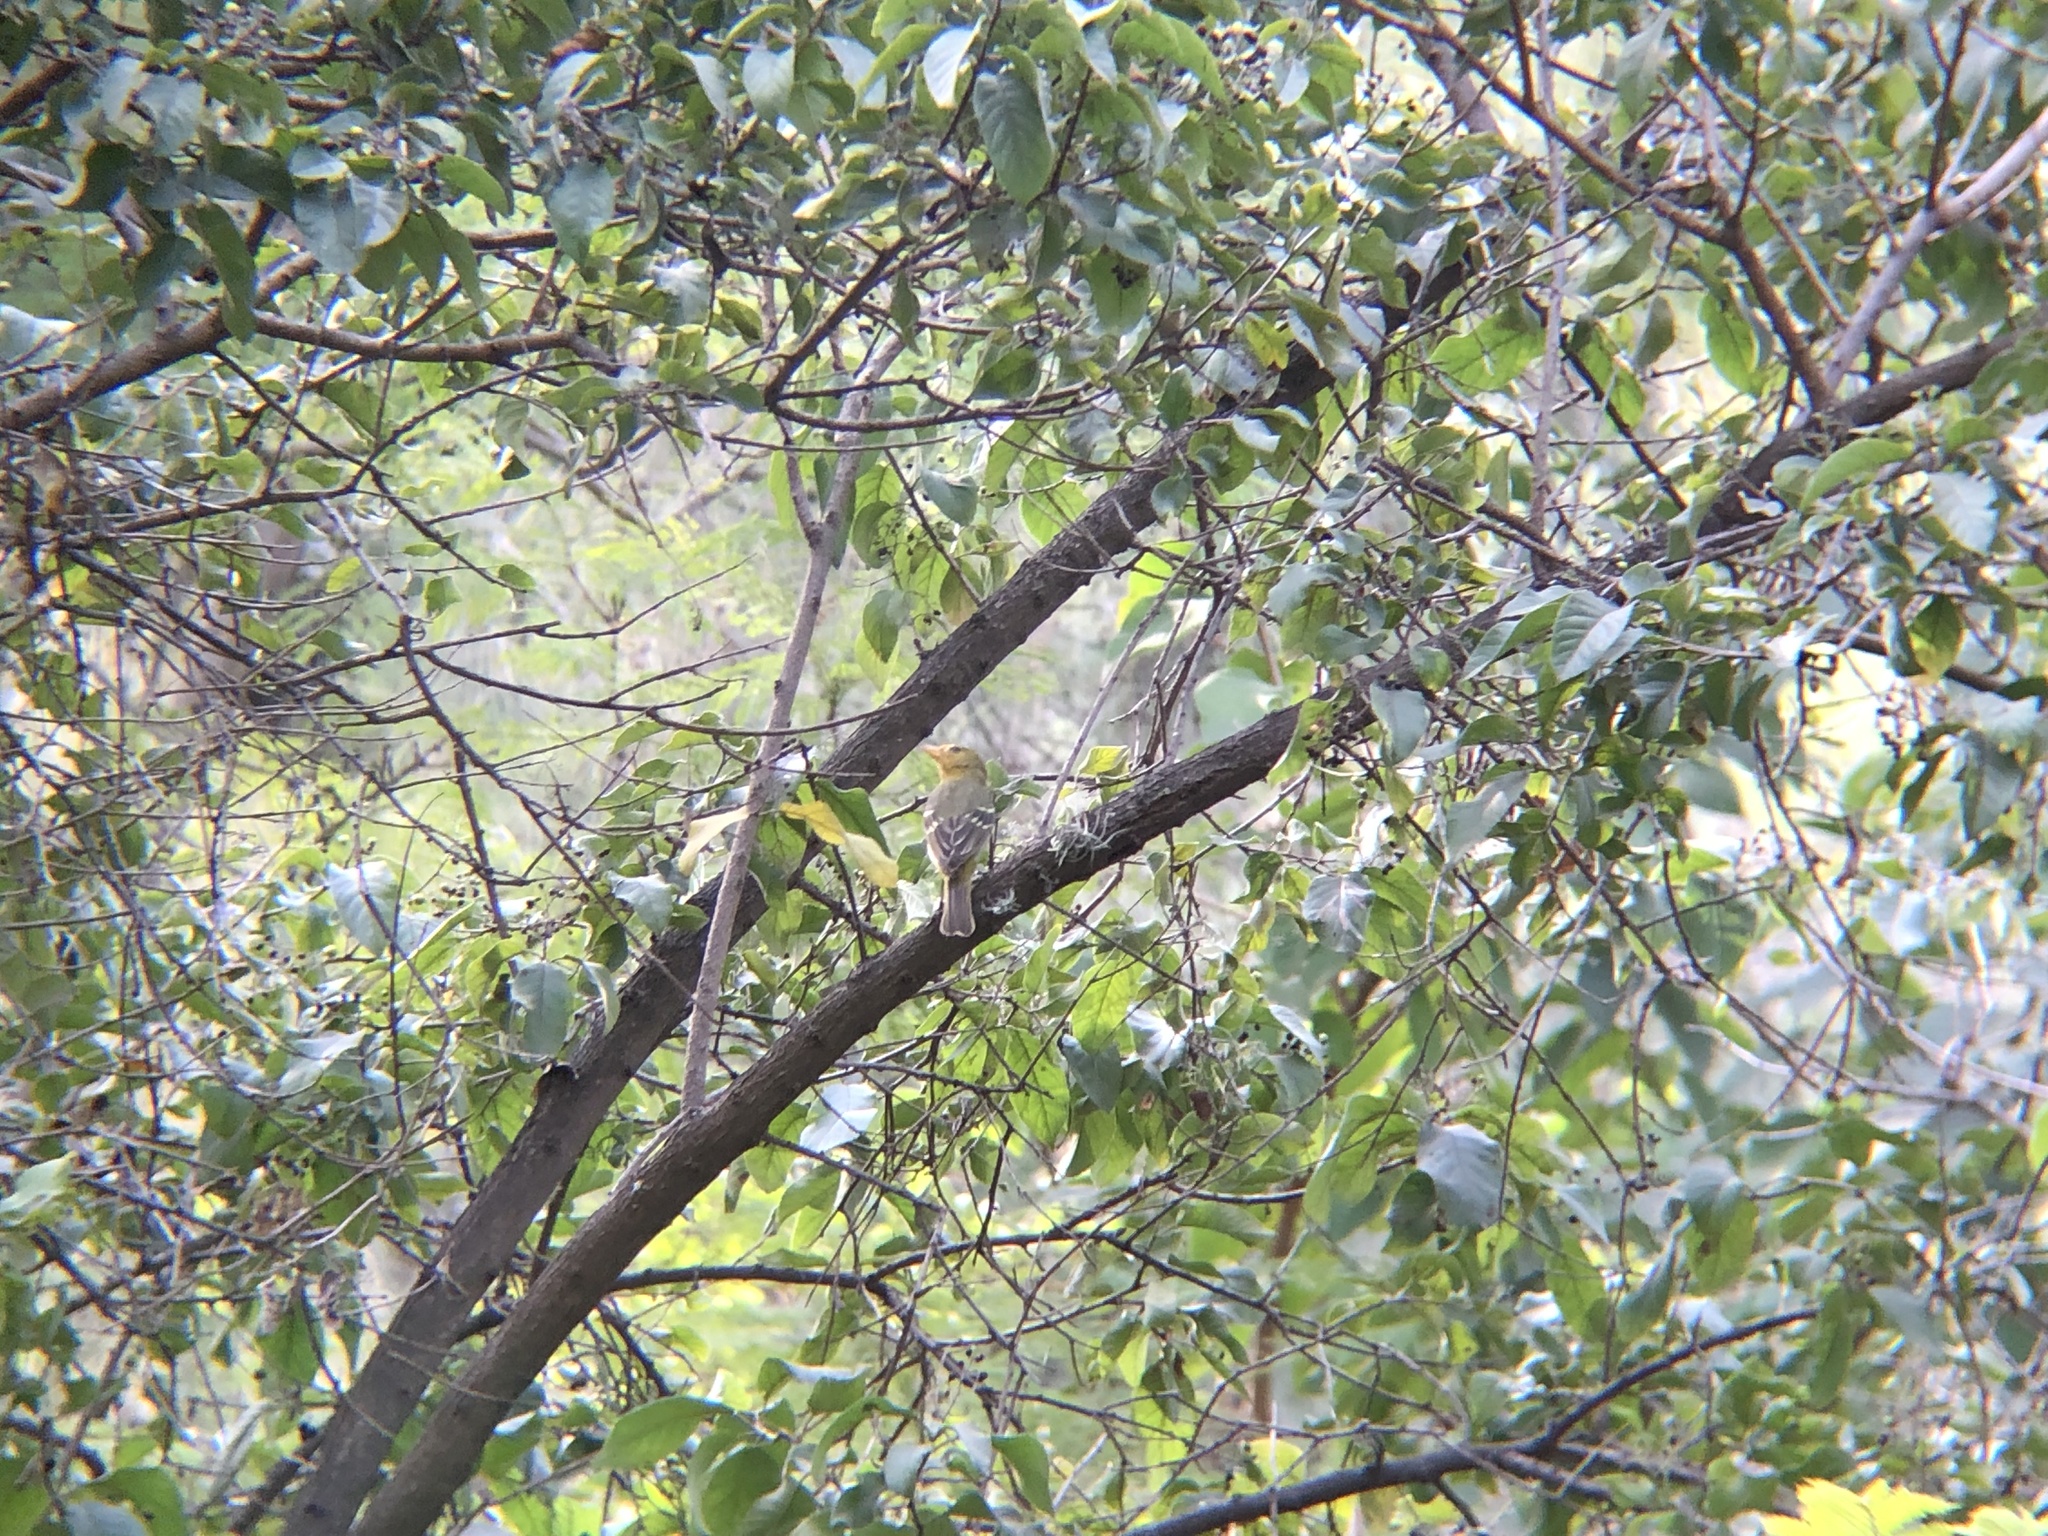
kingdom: Animalia
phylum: Chordata
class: Aves
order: Passeriformes
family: Cardinalidae
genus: Piranga
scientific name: Piranga ludoviciana
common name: Western tanager
